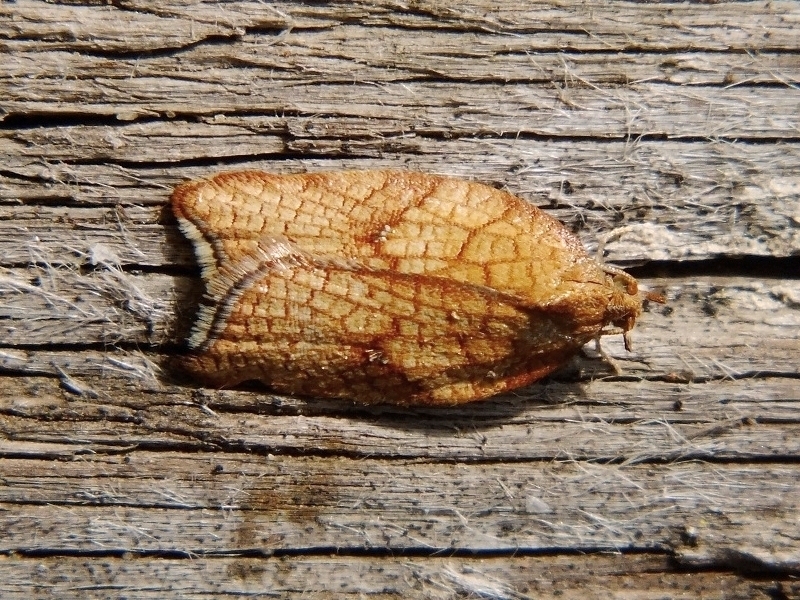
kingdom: Animalia
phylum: Arthropoda
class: Insecta
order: Lepidoptera
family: Tortricidae
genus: Acleris
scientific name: Acleris rhombana
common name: Tortricid moth
